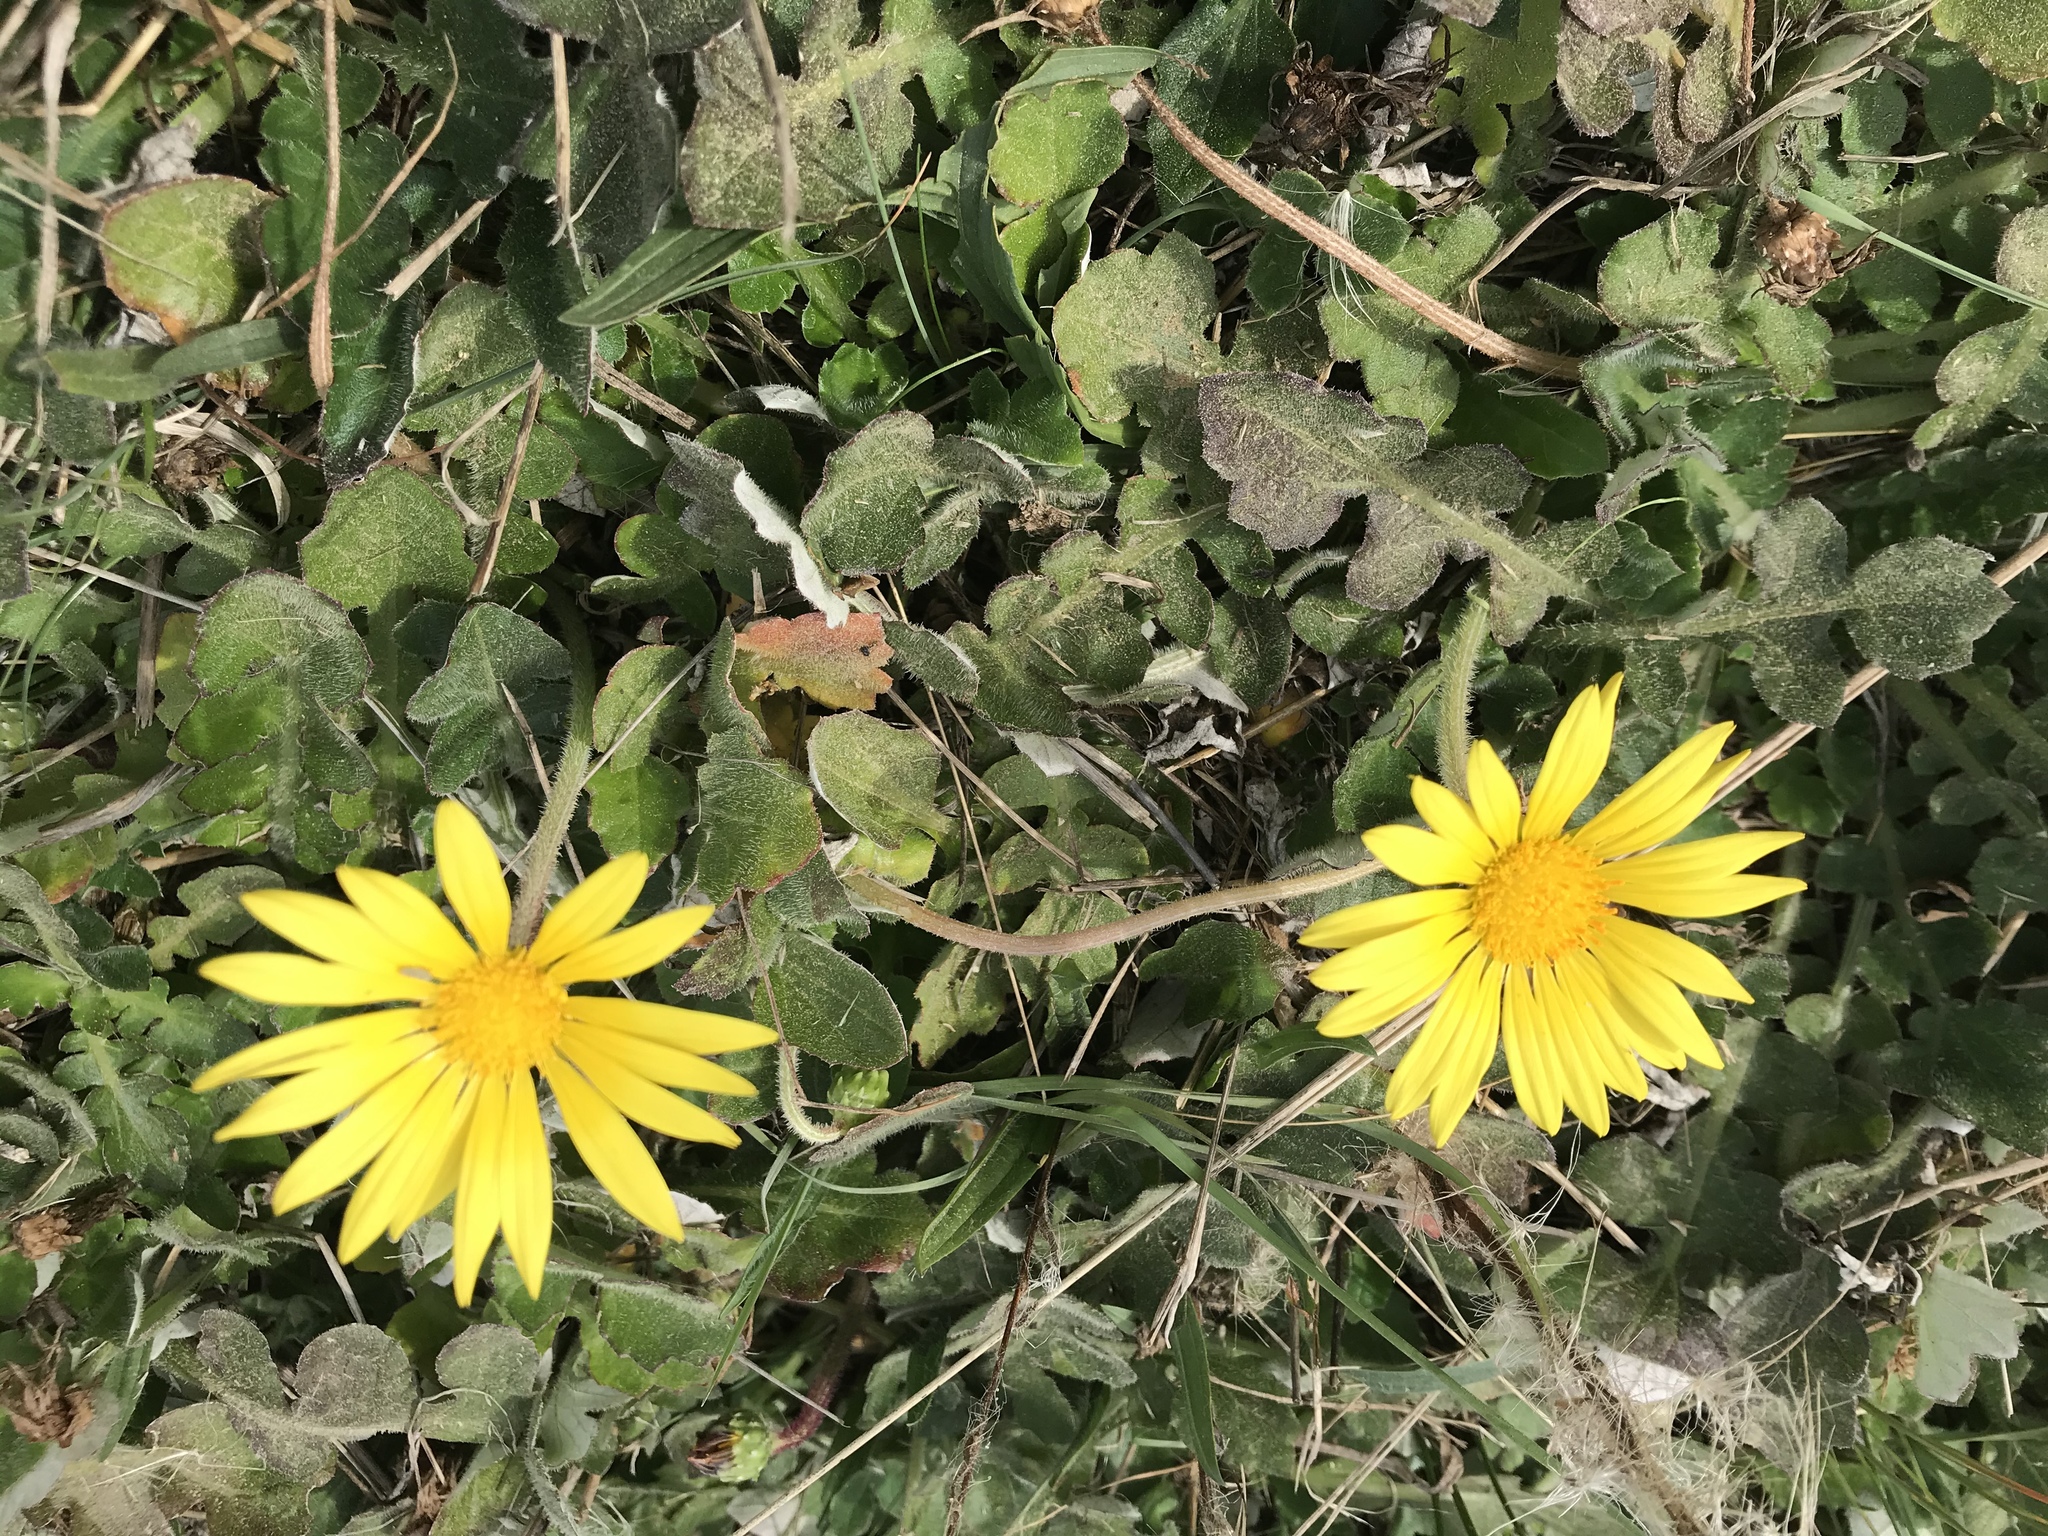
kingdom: Plantae
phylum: Tracheophyta
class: Magnoliopsida
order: Asterales
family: Asteraceae
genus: Arctotheca
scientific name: Arctotheca prostrata
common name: Capeweed
